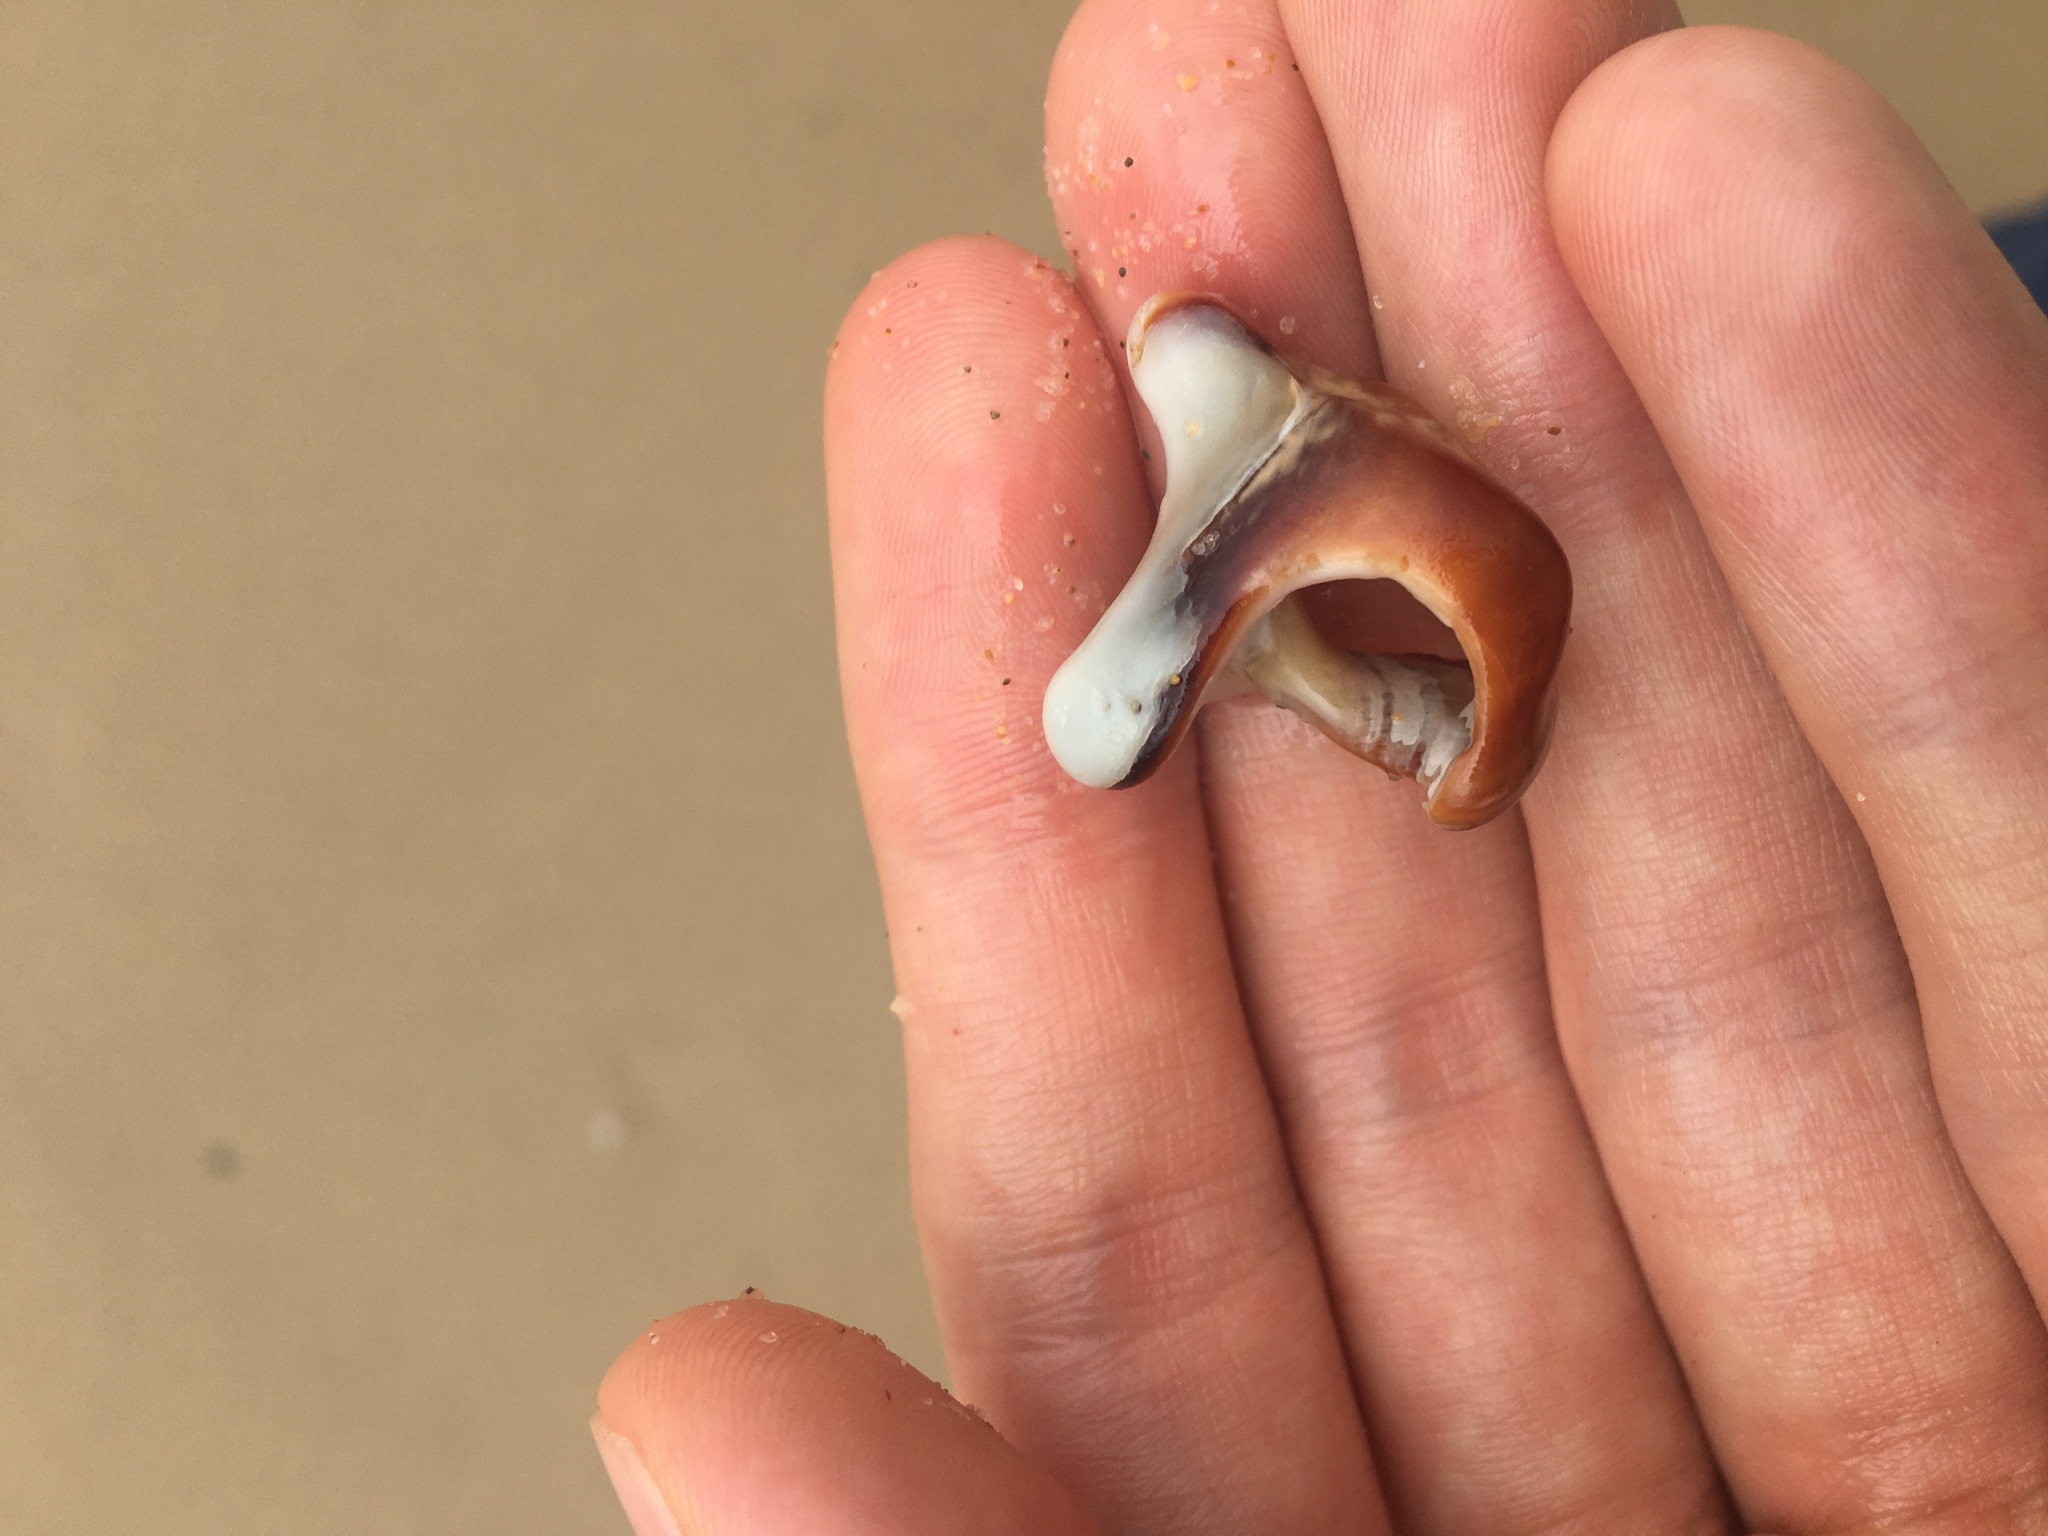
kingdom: Animalia
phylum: Mollusca
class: Gastropoda
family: Batillariidae
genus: Pyrazus
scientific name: Pyrazus ebeninus
